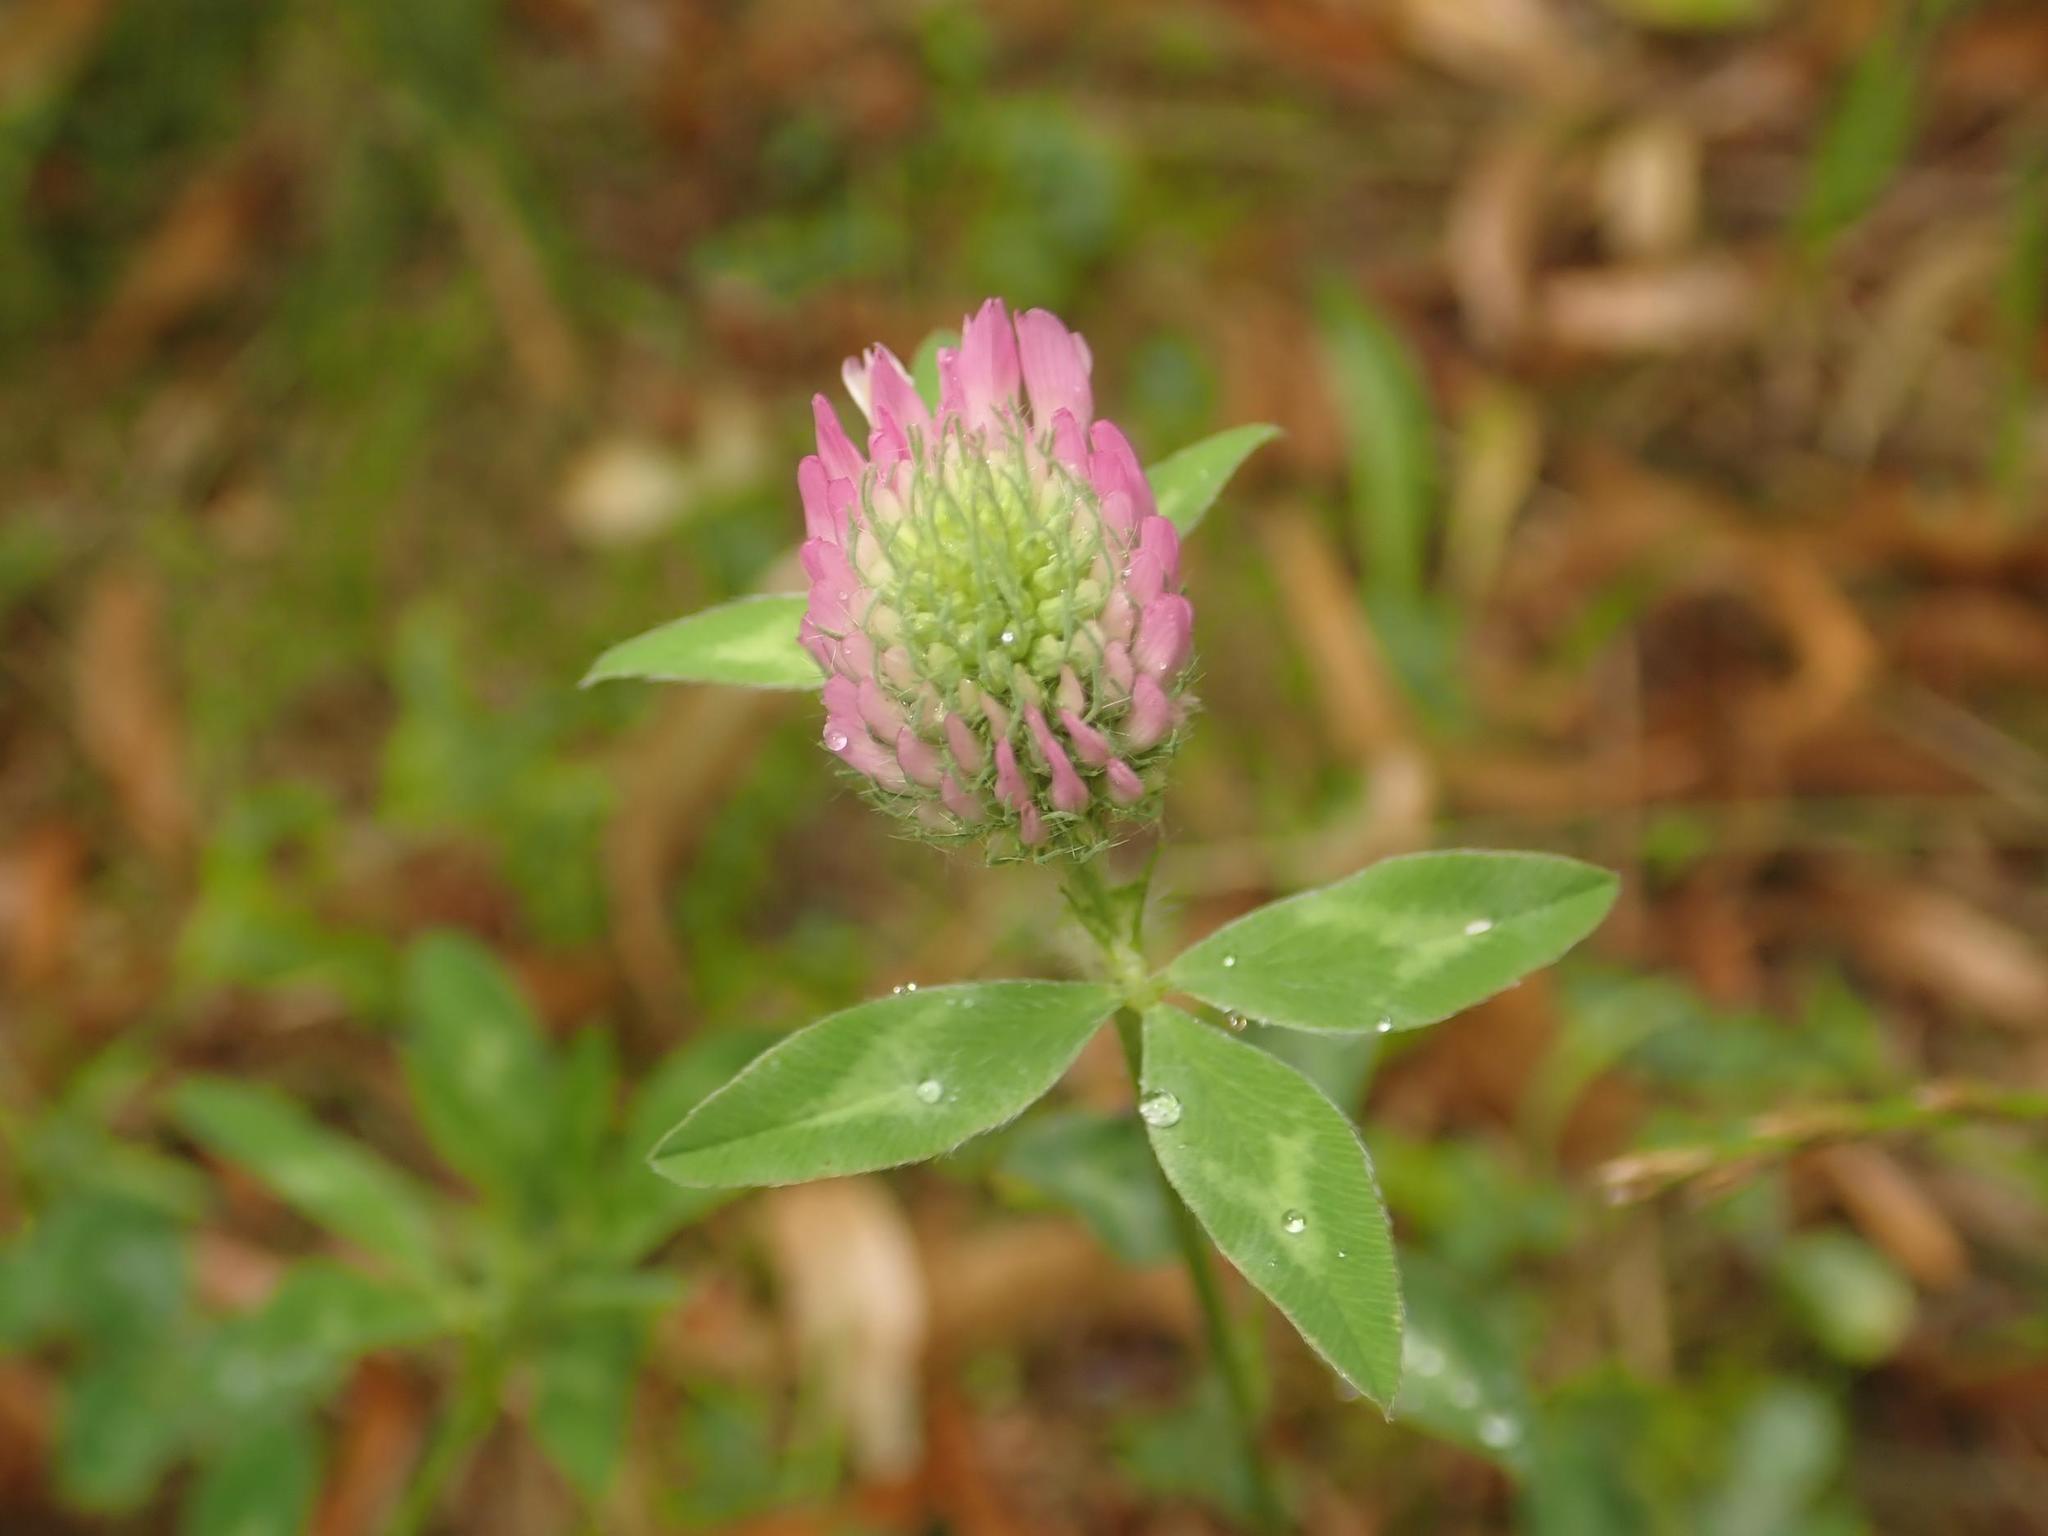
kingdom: Plantae
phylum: Tracheophyta
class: Magnoliopsida
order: Fabales
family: Fabaceae
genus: Trifolium
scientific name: Trifolium pratense
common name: Red clover
